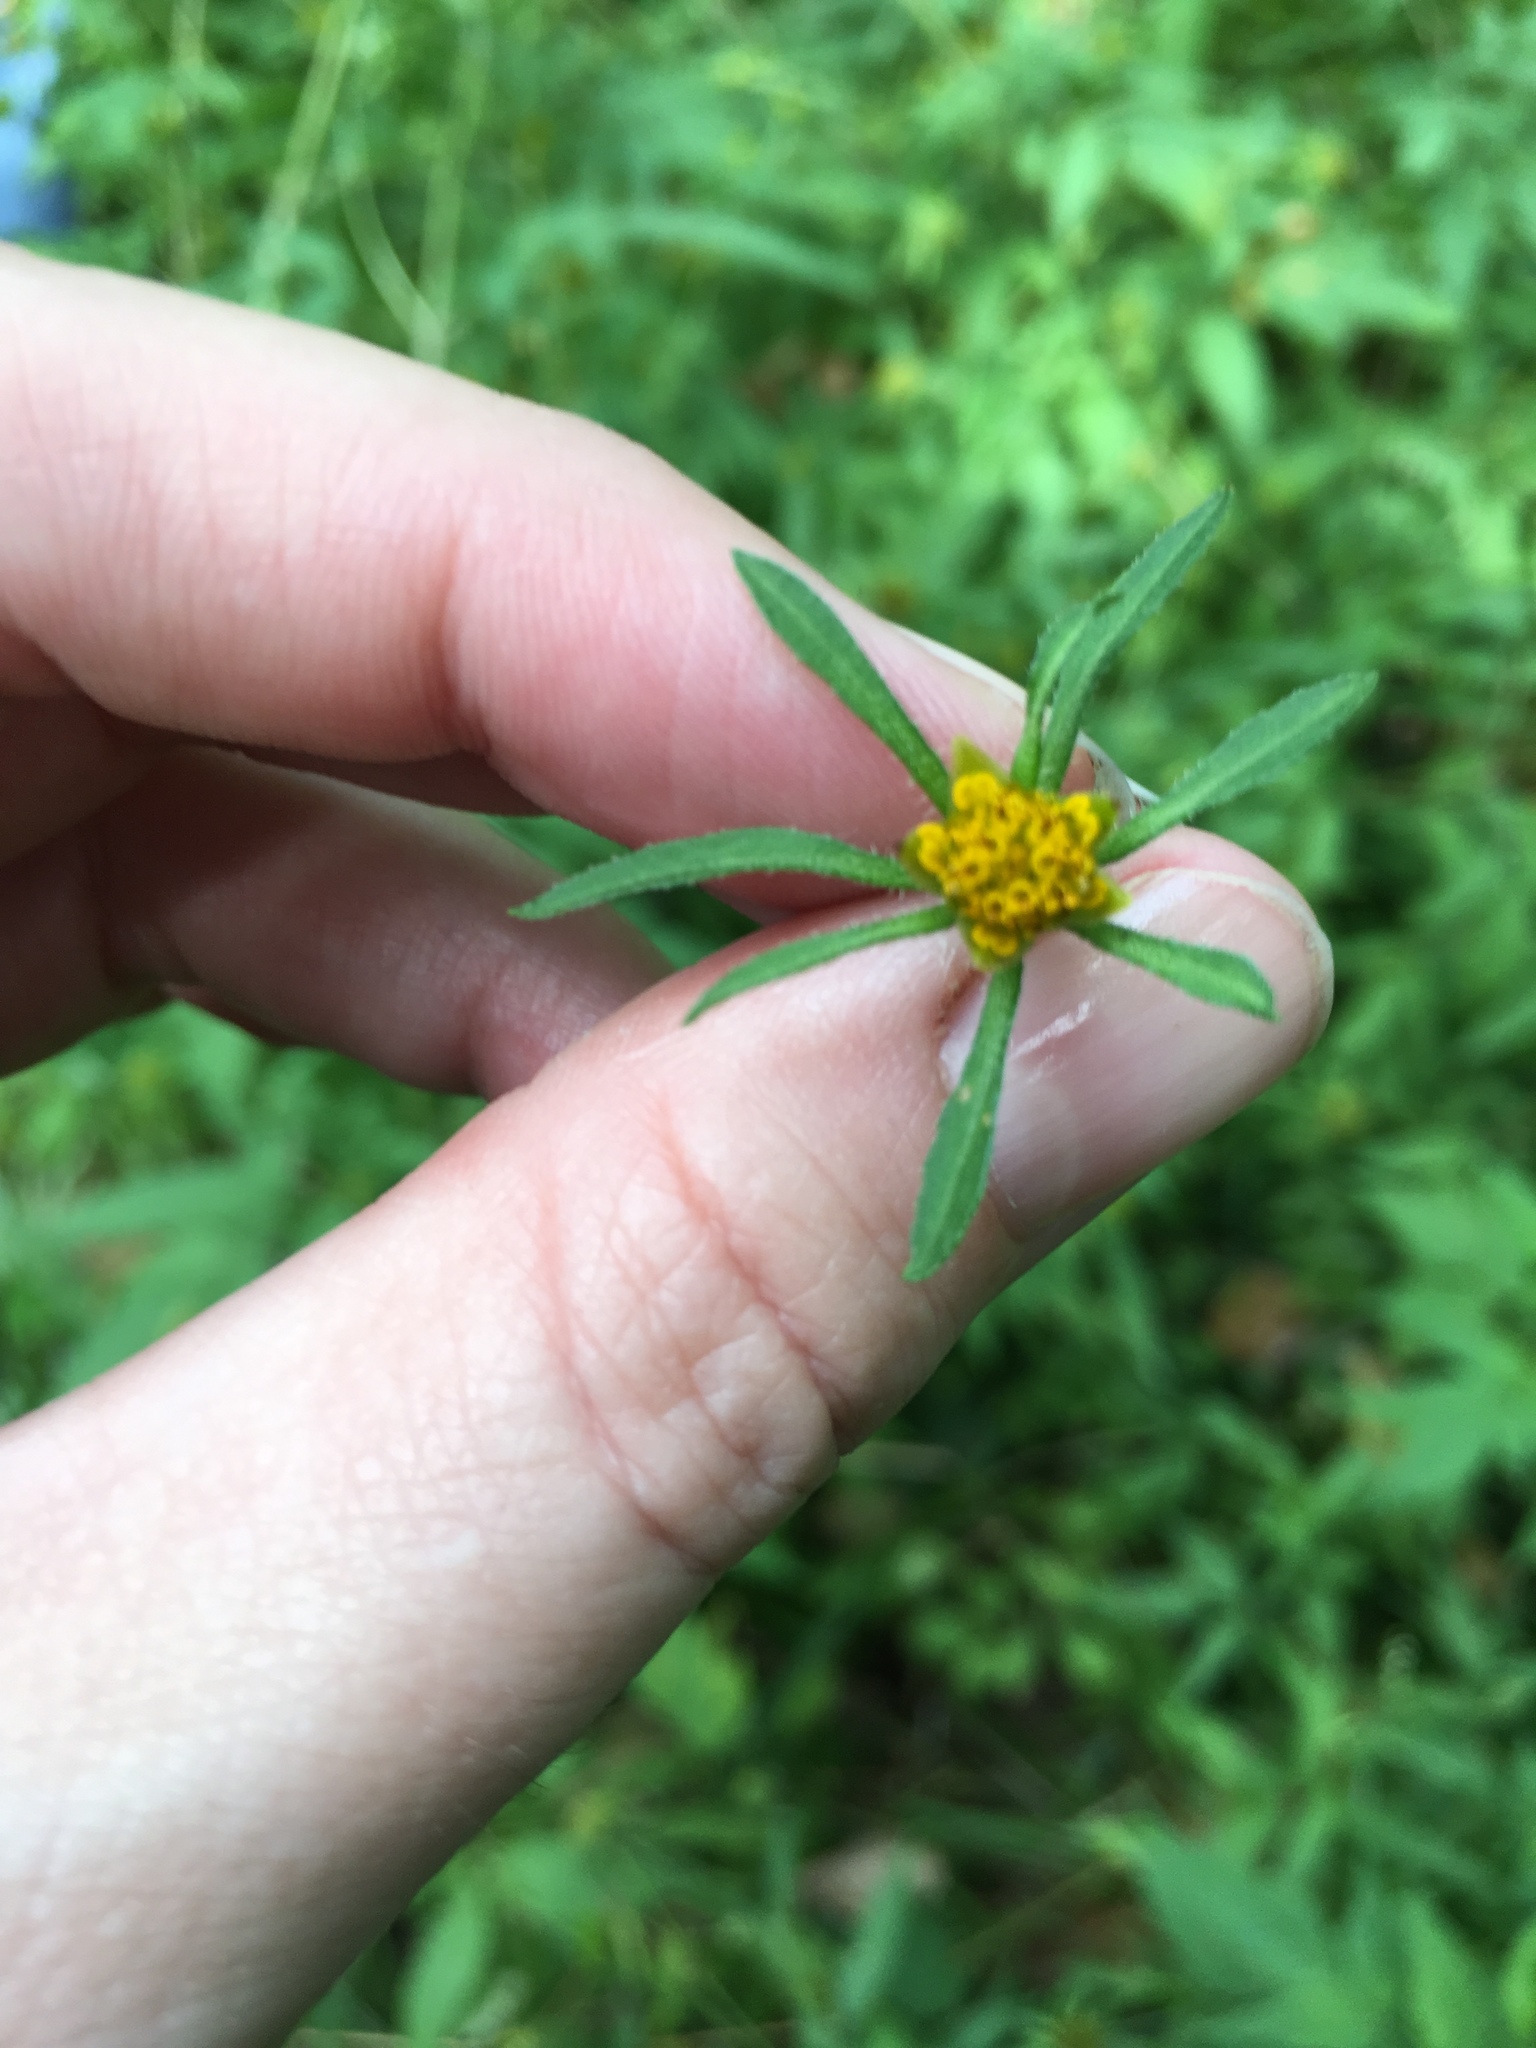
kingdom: Plantae
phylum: Tracheophyta
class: Magnoliopsida
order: Asterales
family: Asteraceae
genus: Bidens
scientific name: Bidens frondosa
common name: Beggarticks
